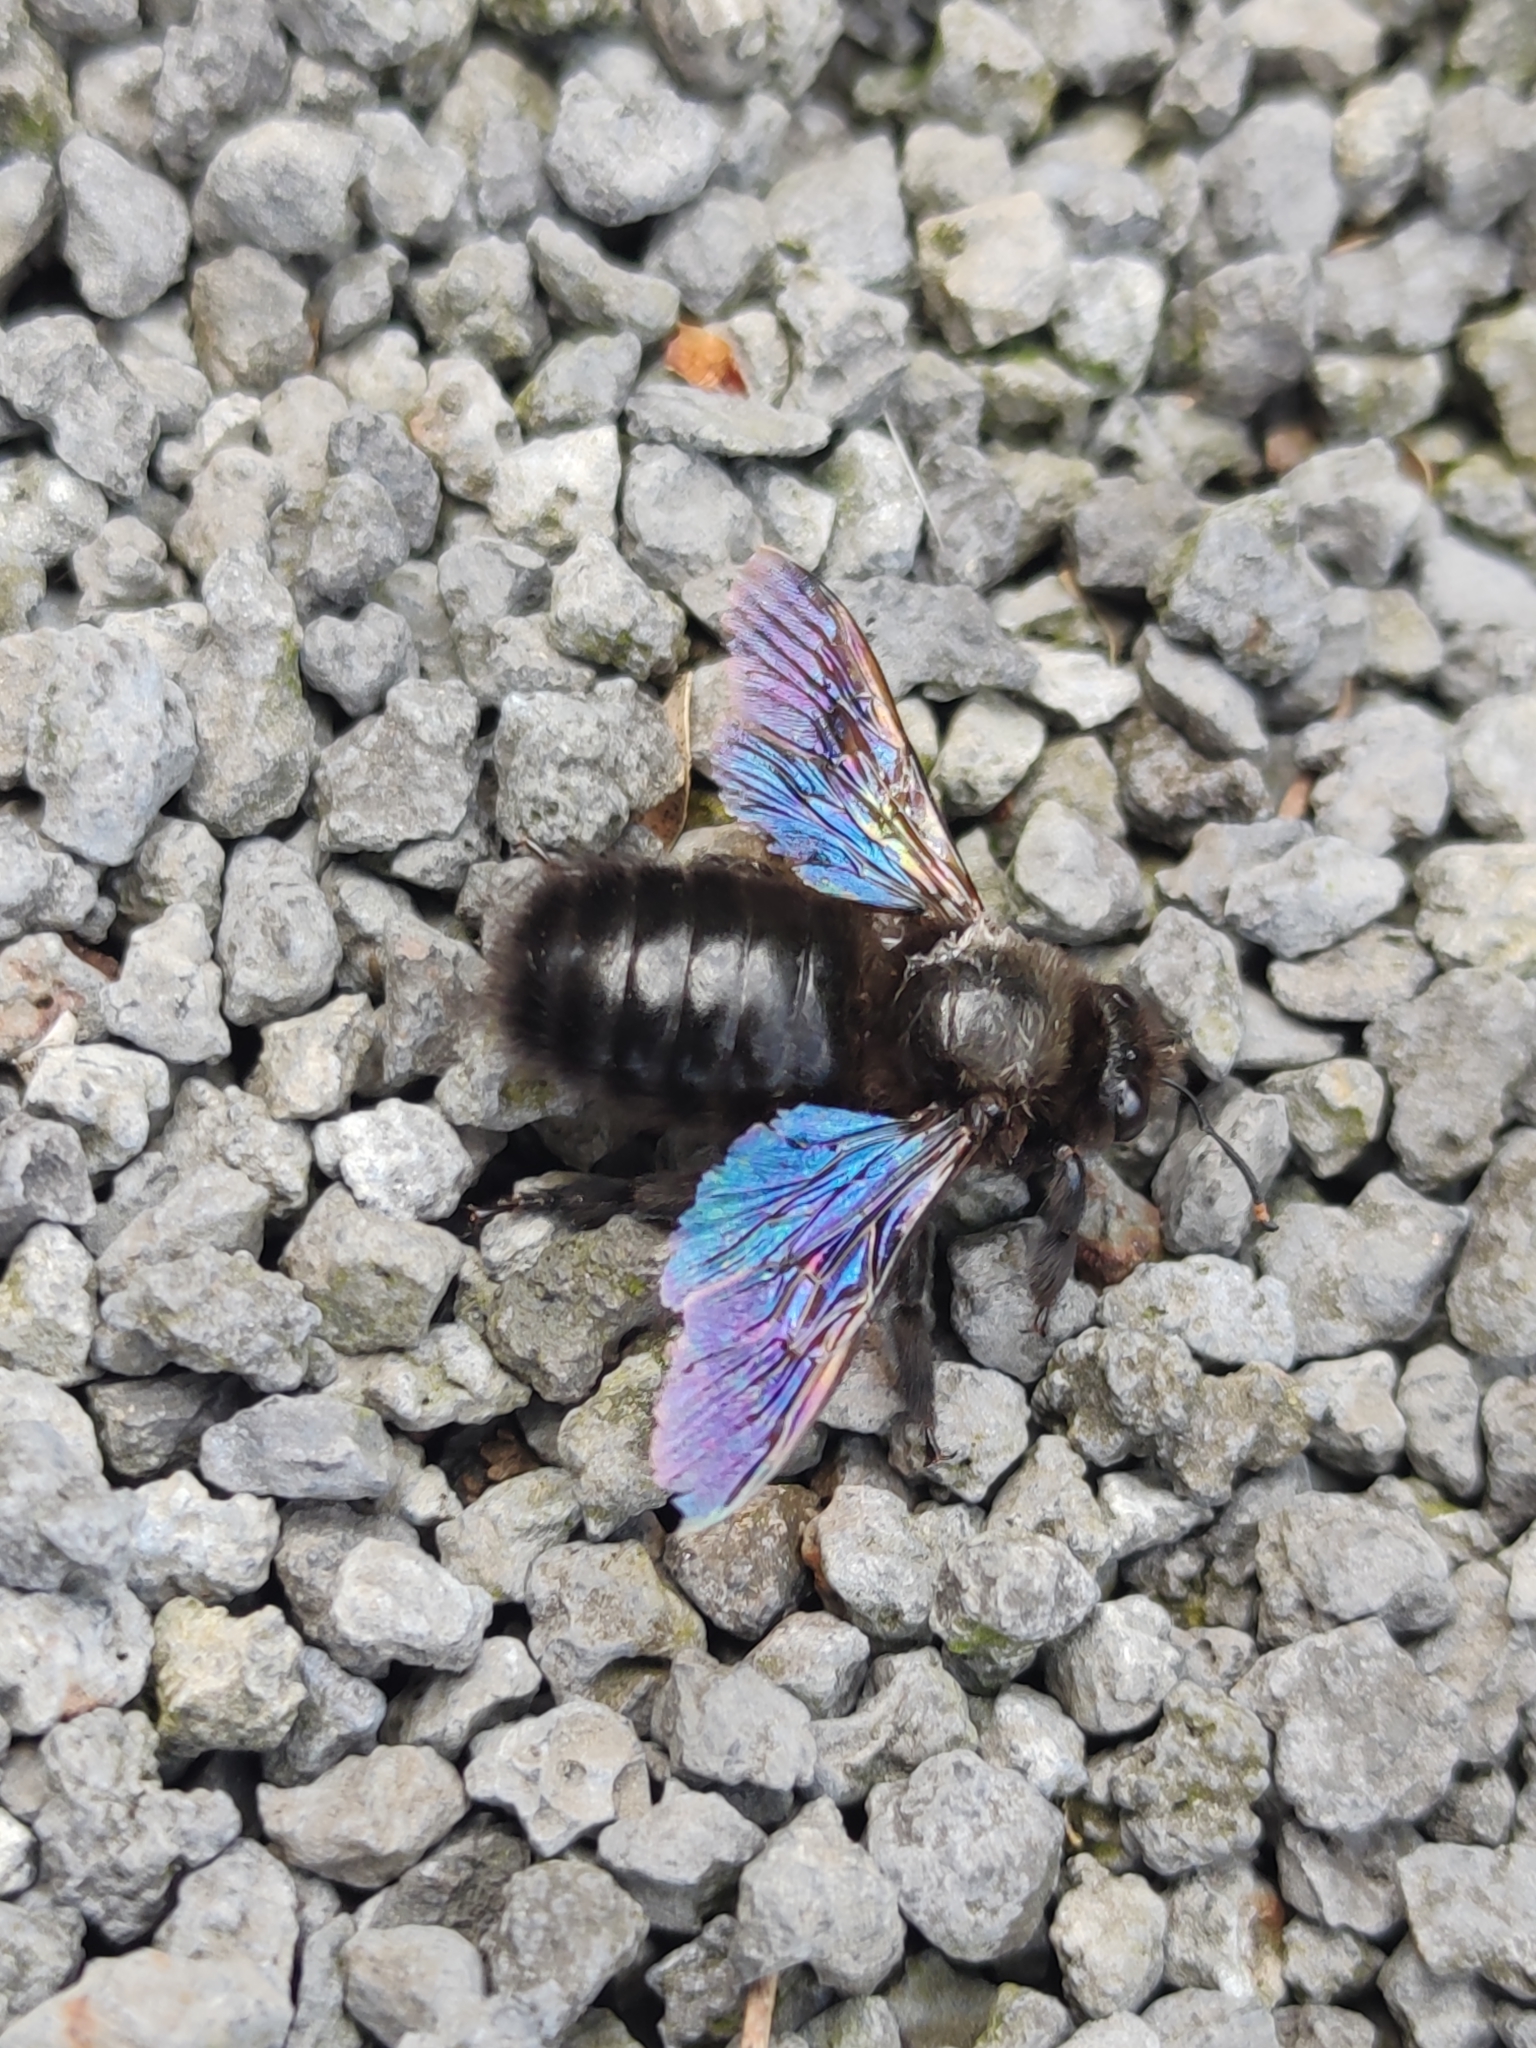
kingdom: Animalia
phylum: Arthropoda
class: Insecta
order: Hymenoptera
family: Apidae
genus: Xylocopa
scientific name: Xylocopa violacea
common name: Violet carpenter bee
